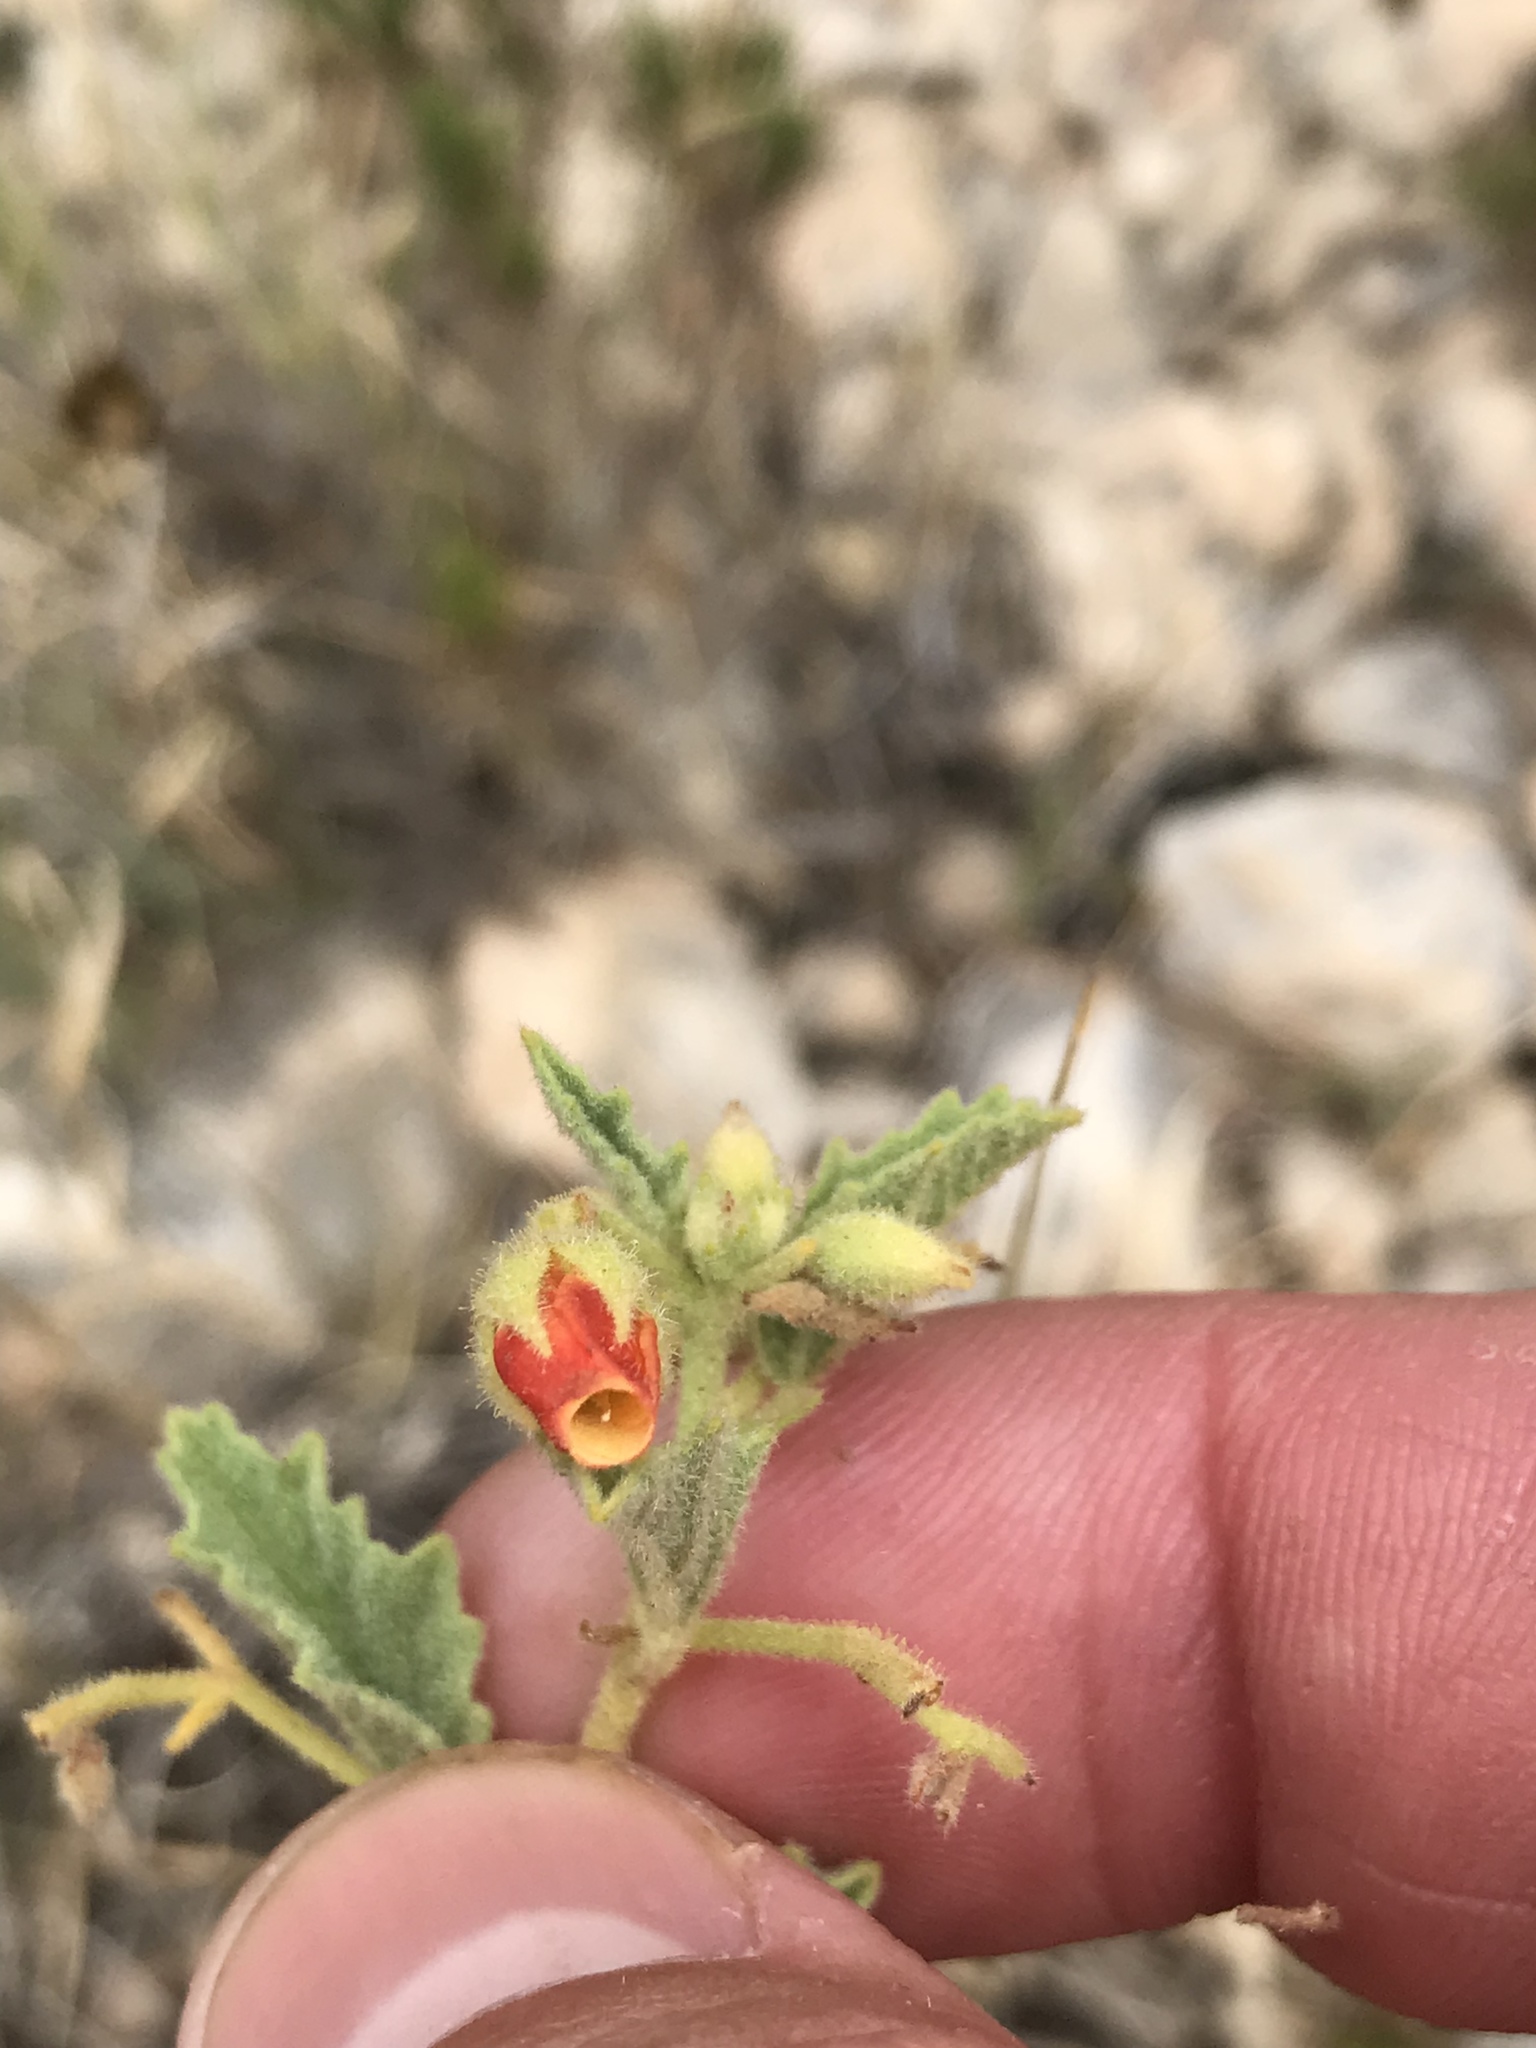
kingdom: Plantae
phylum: Tracheophyta
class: Magnoliopsida
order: Malvales
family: Malvaceae
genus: Hermannia
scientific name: Hermannia texana
